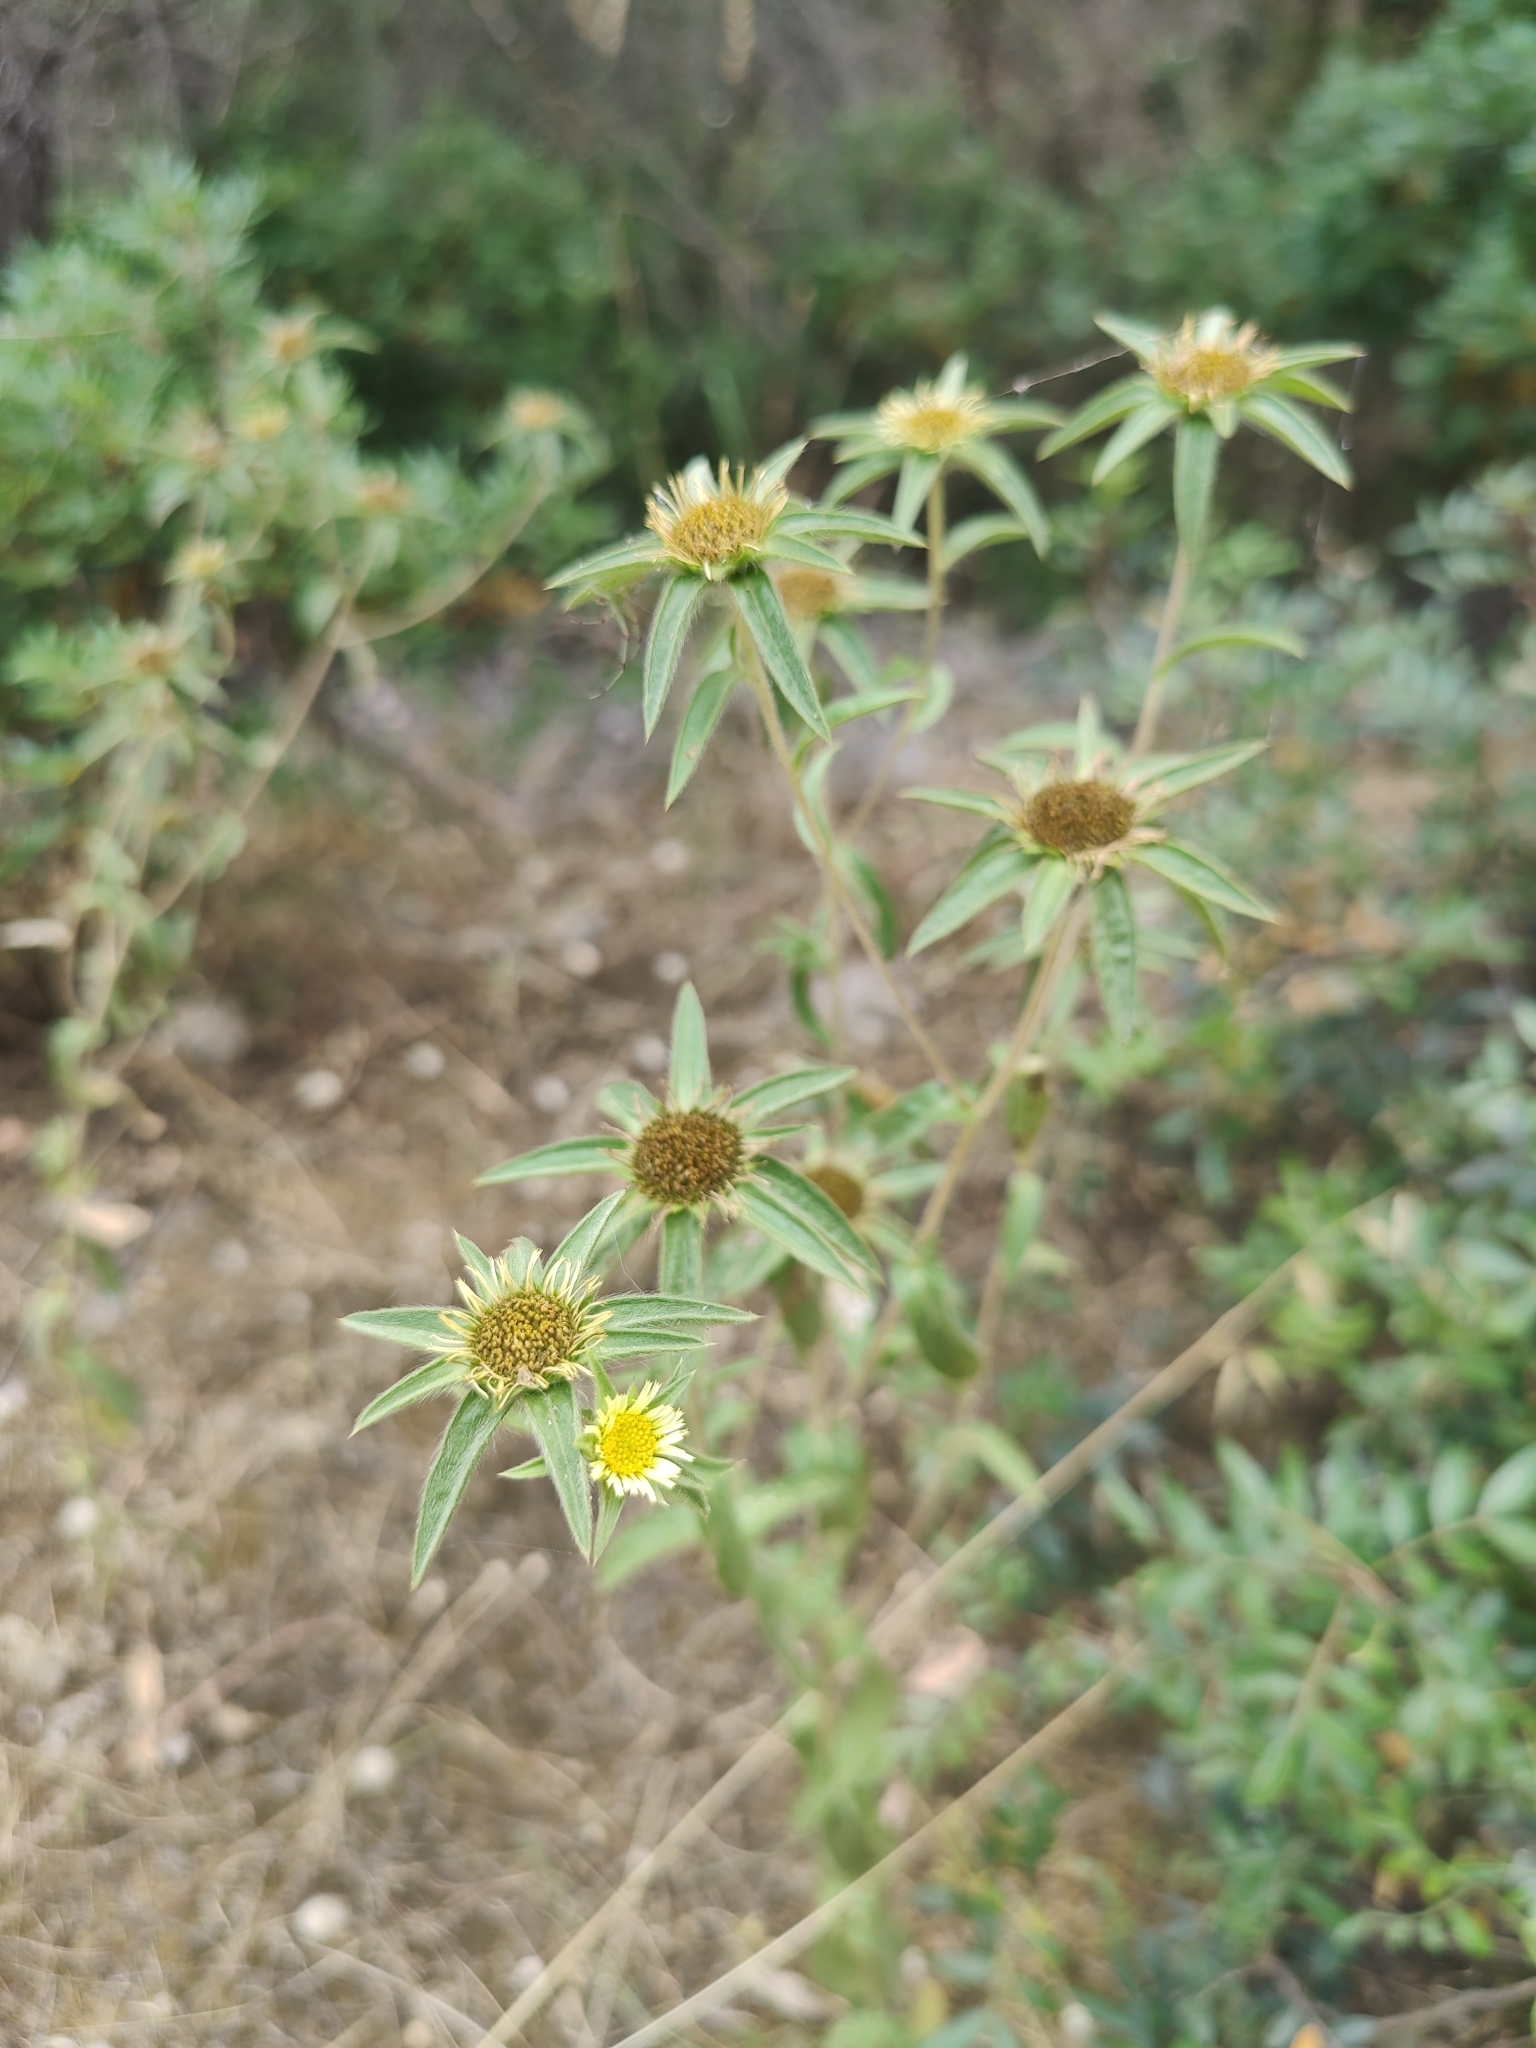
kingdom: Plantae
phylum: Tracheophyta
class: Magnoliopsida
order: Asterales
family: Asteraceae
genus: Pallenis
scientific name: Pallenis spinosa
